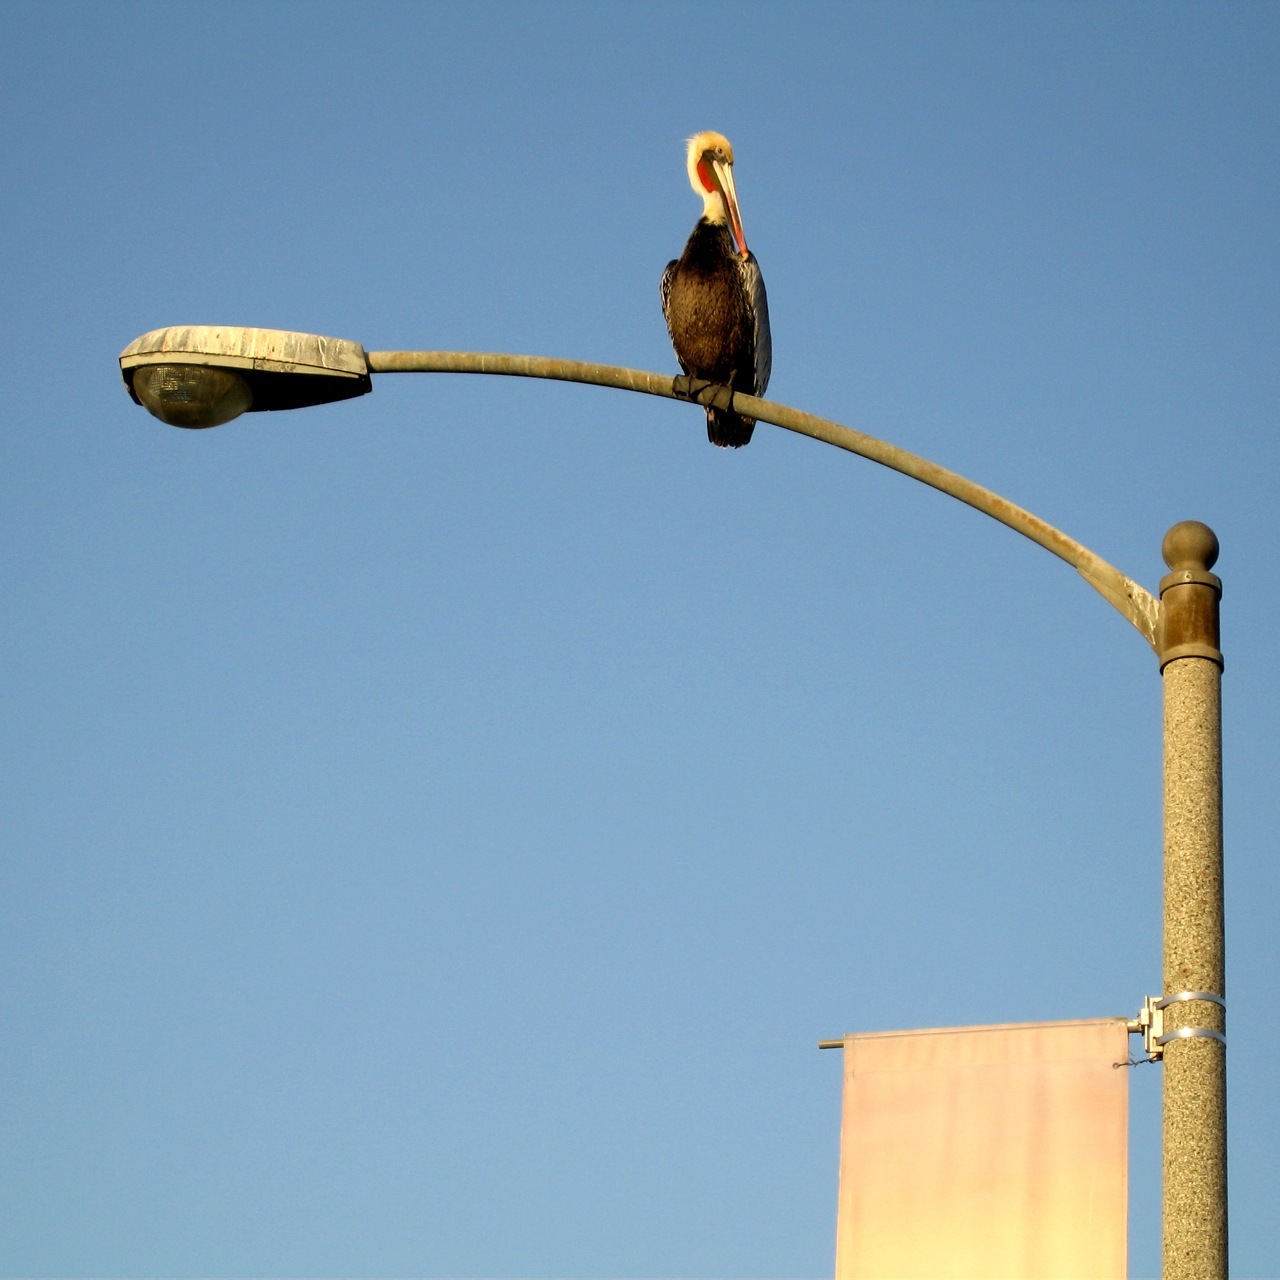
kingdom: Animalia
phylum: Chordata
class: Aves
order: Pelecaniformes
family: Pelecanidae
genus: Pelecanus
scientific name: Pelecanus occidentalis
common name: Brown pelican
